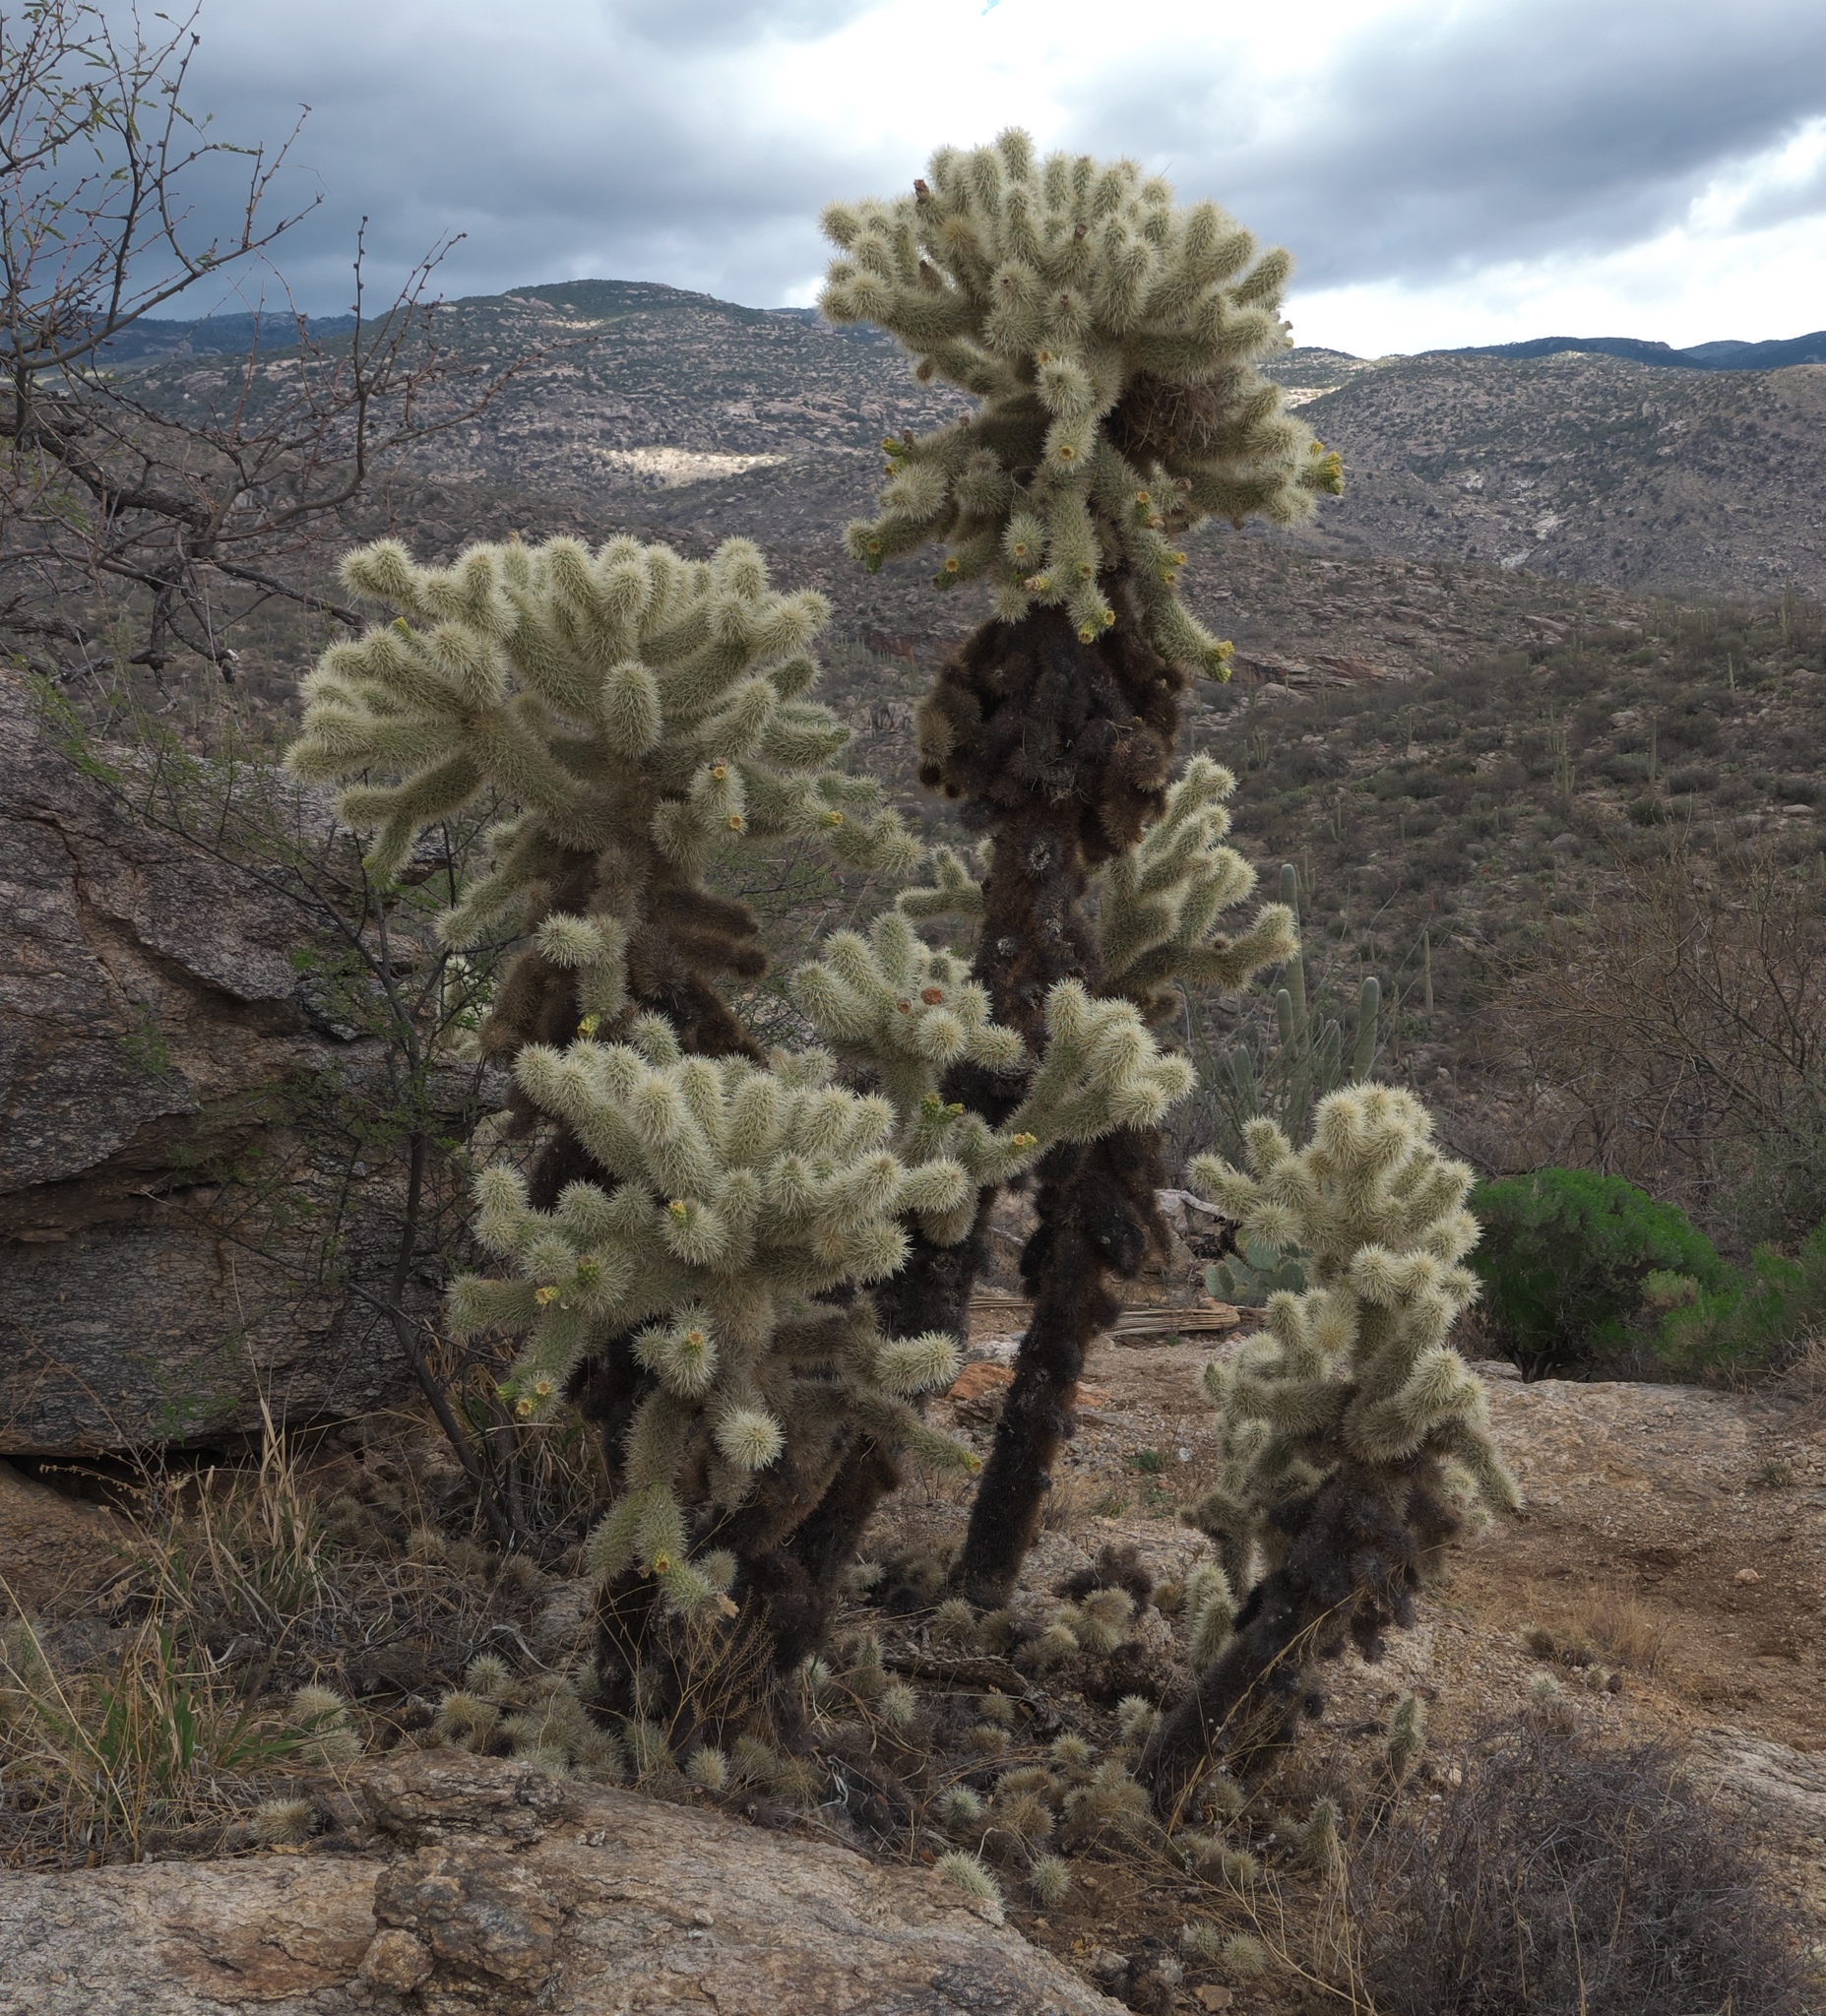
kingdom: Plantae
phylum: Tracheophyta
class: Magnoliopsida
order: Caryophyllales
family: Cactaceae
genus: Cylindropuntia
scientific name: Cylindropuntia fosbergii
